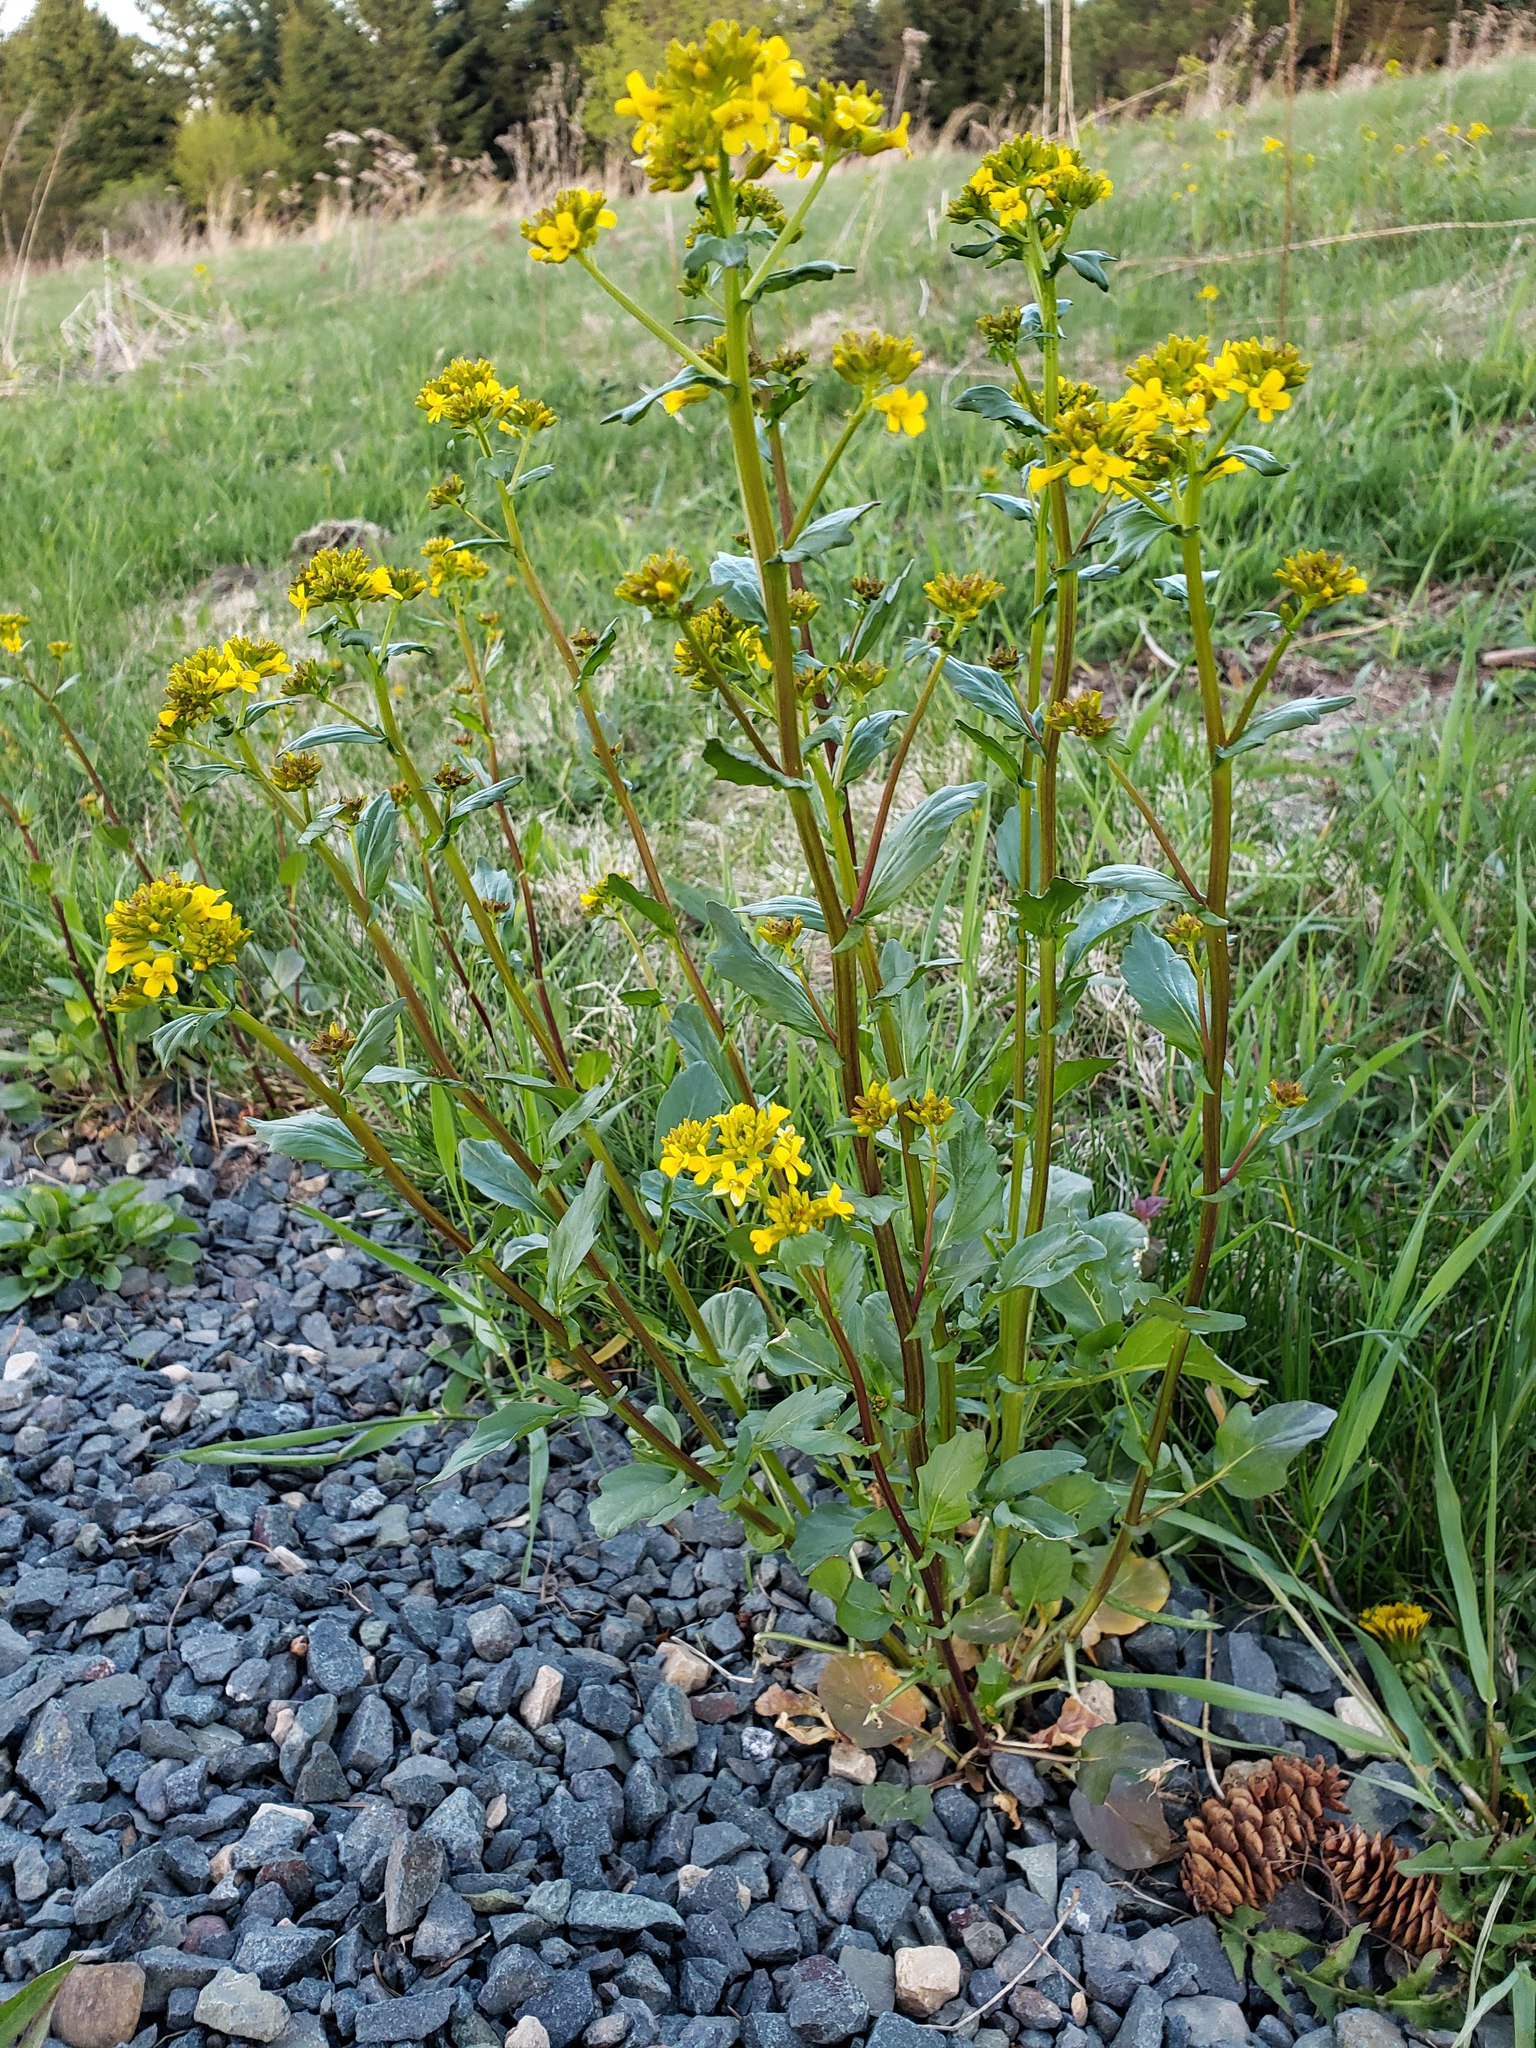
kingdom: Plantae
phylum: Tracheophyta
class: Magnoliopsida
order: Brassicales
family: Brassicaceae
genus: Barbarea
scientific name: Barbarea vulgaris
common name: Cressy-greens
